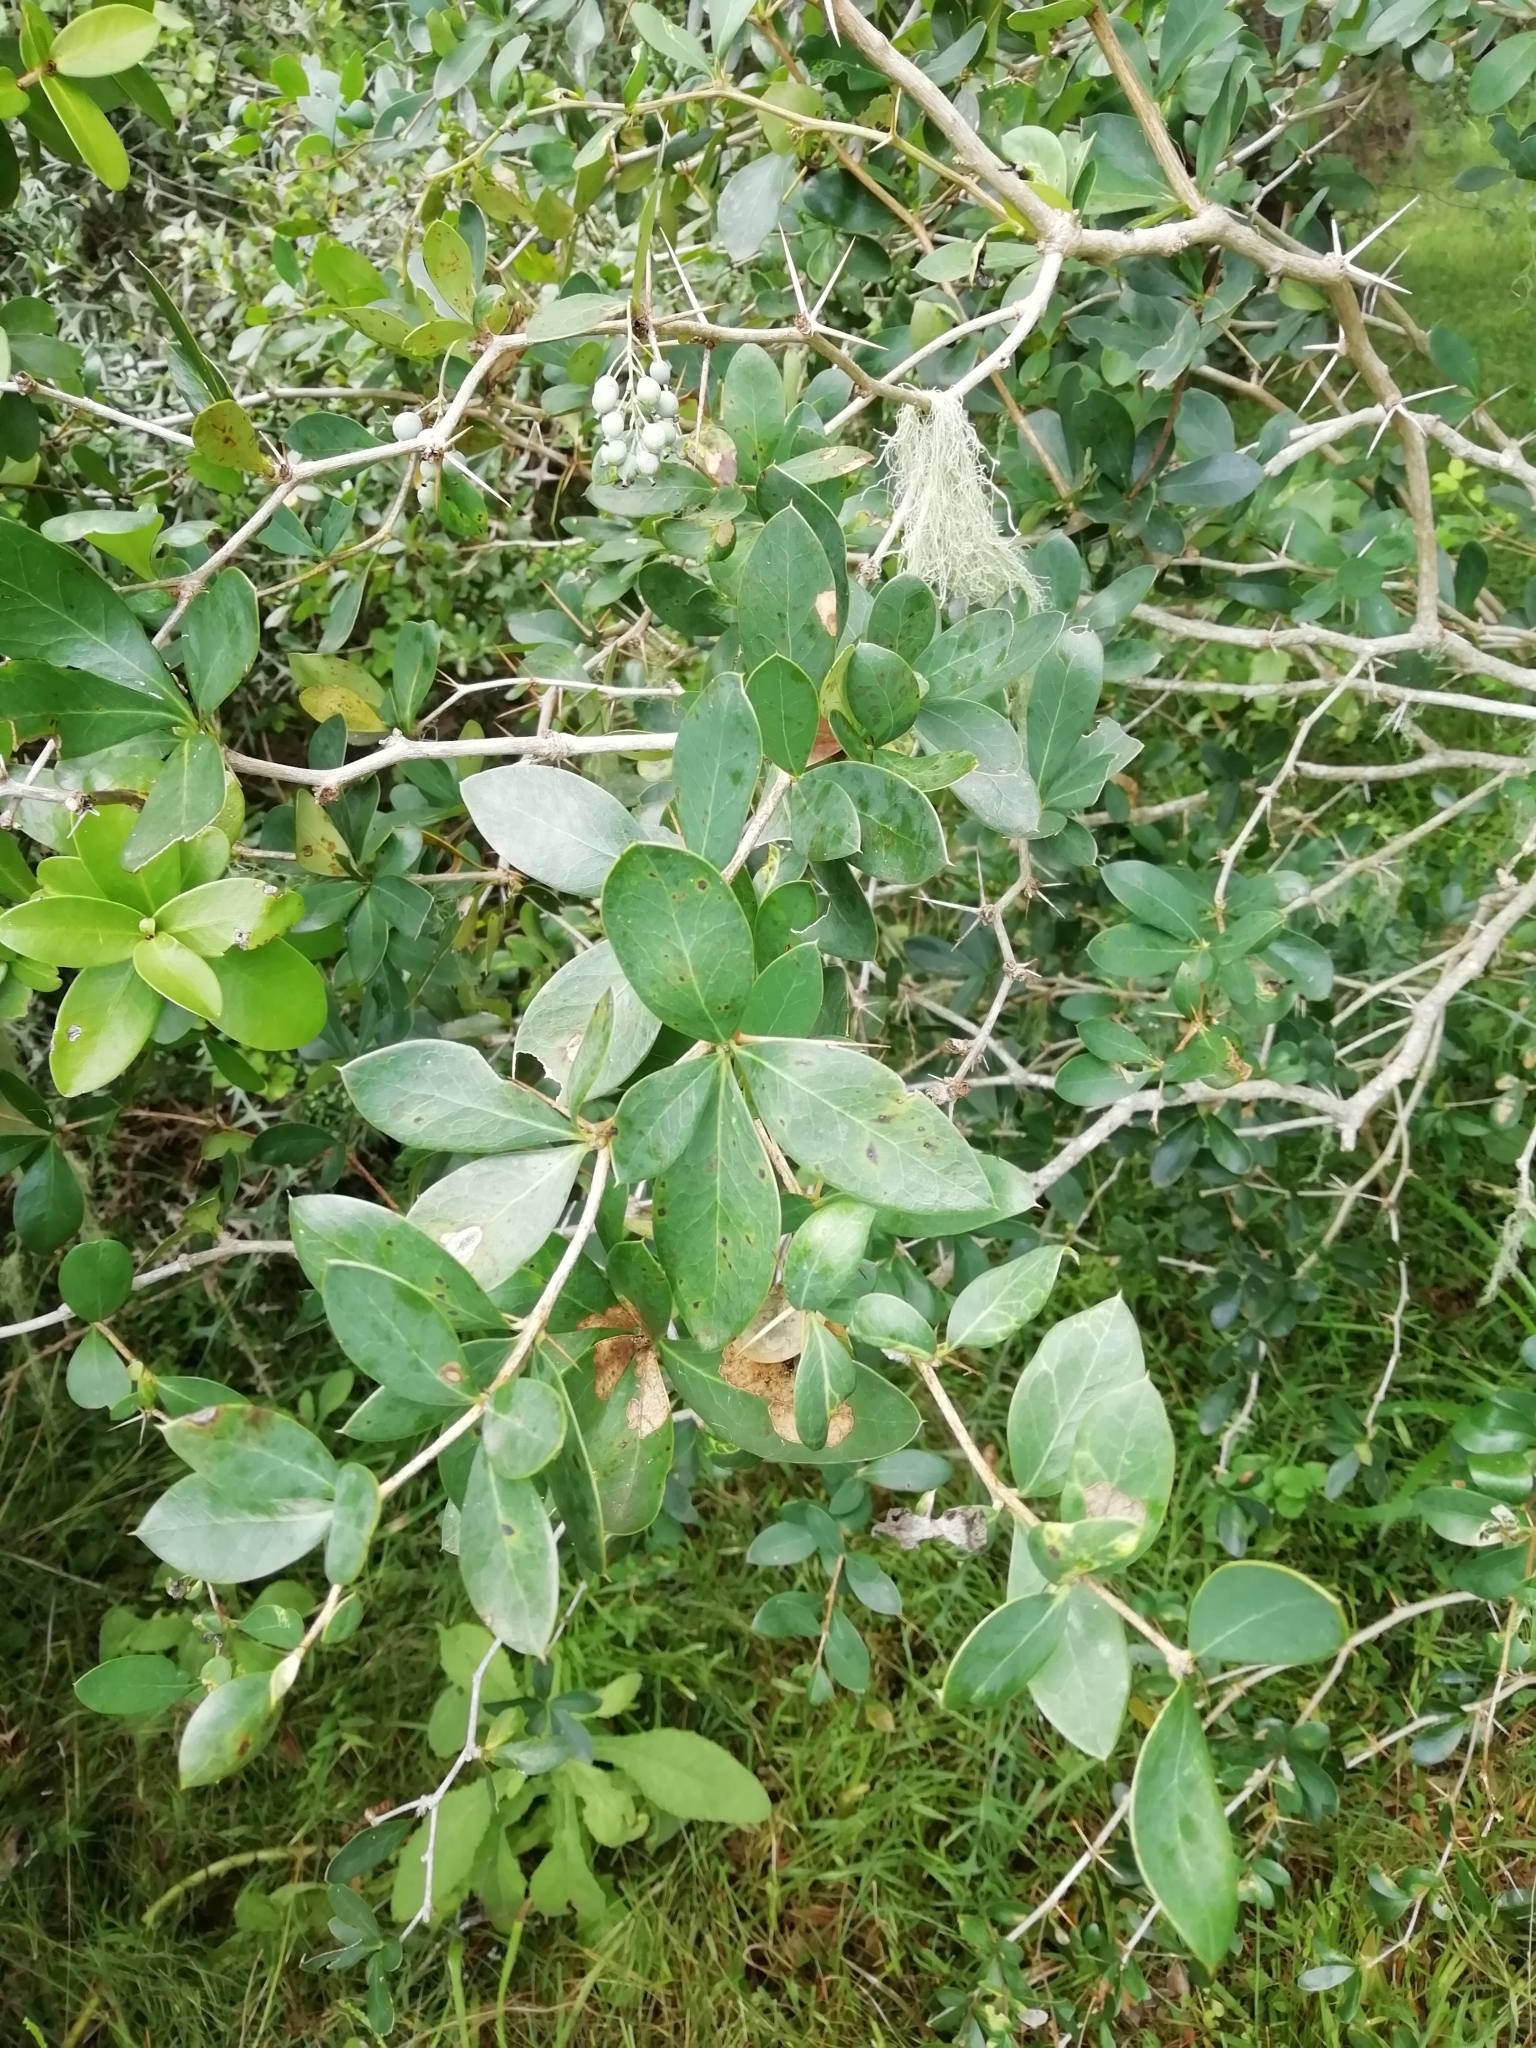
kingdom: Plantae
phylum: Tracheophyta
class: Magnoliopsida
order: Ranunculales
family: Berberidaceae
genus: Berberis
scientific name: Berberis laurina
